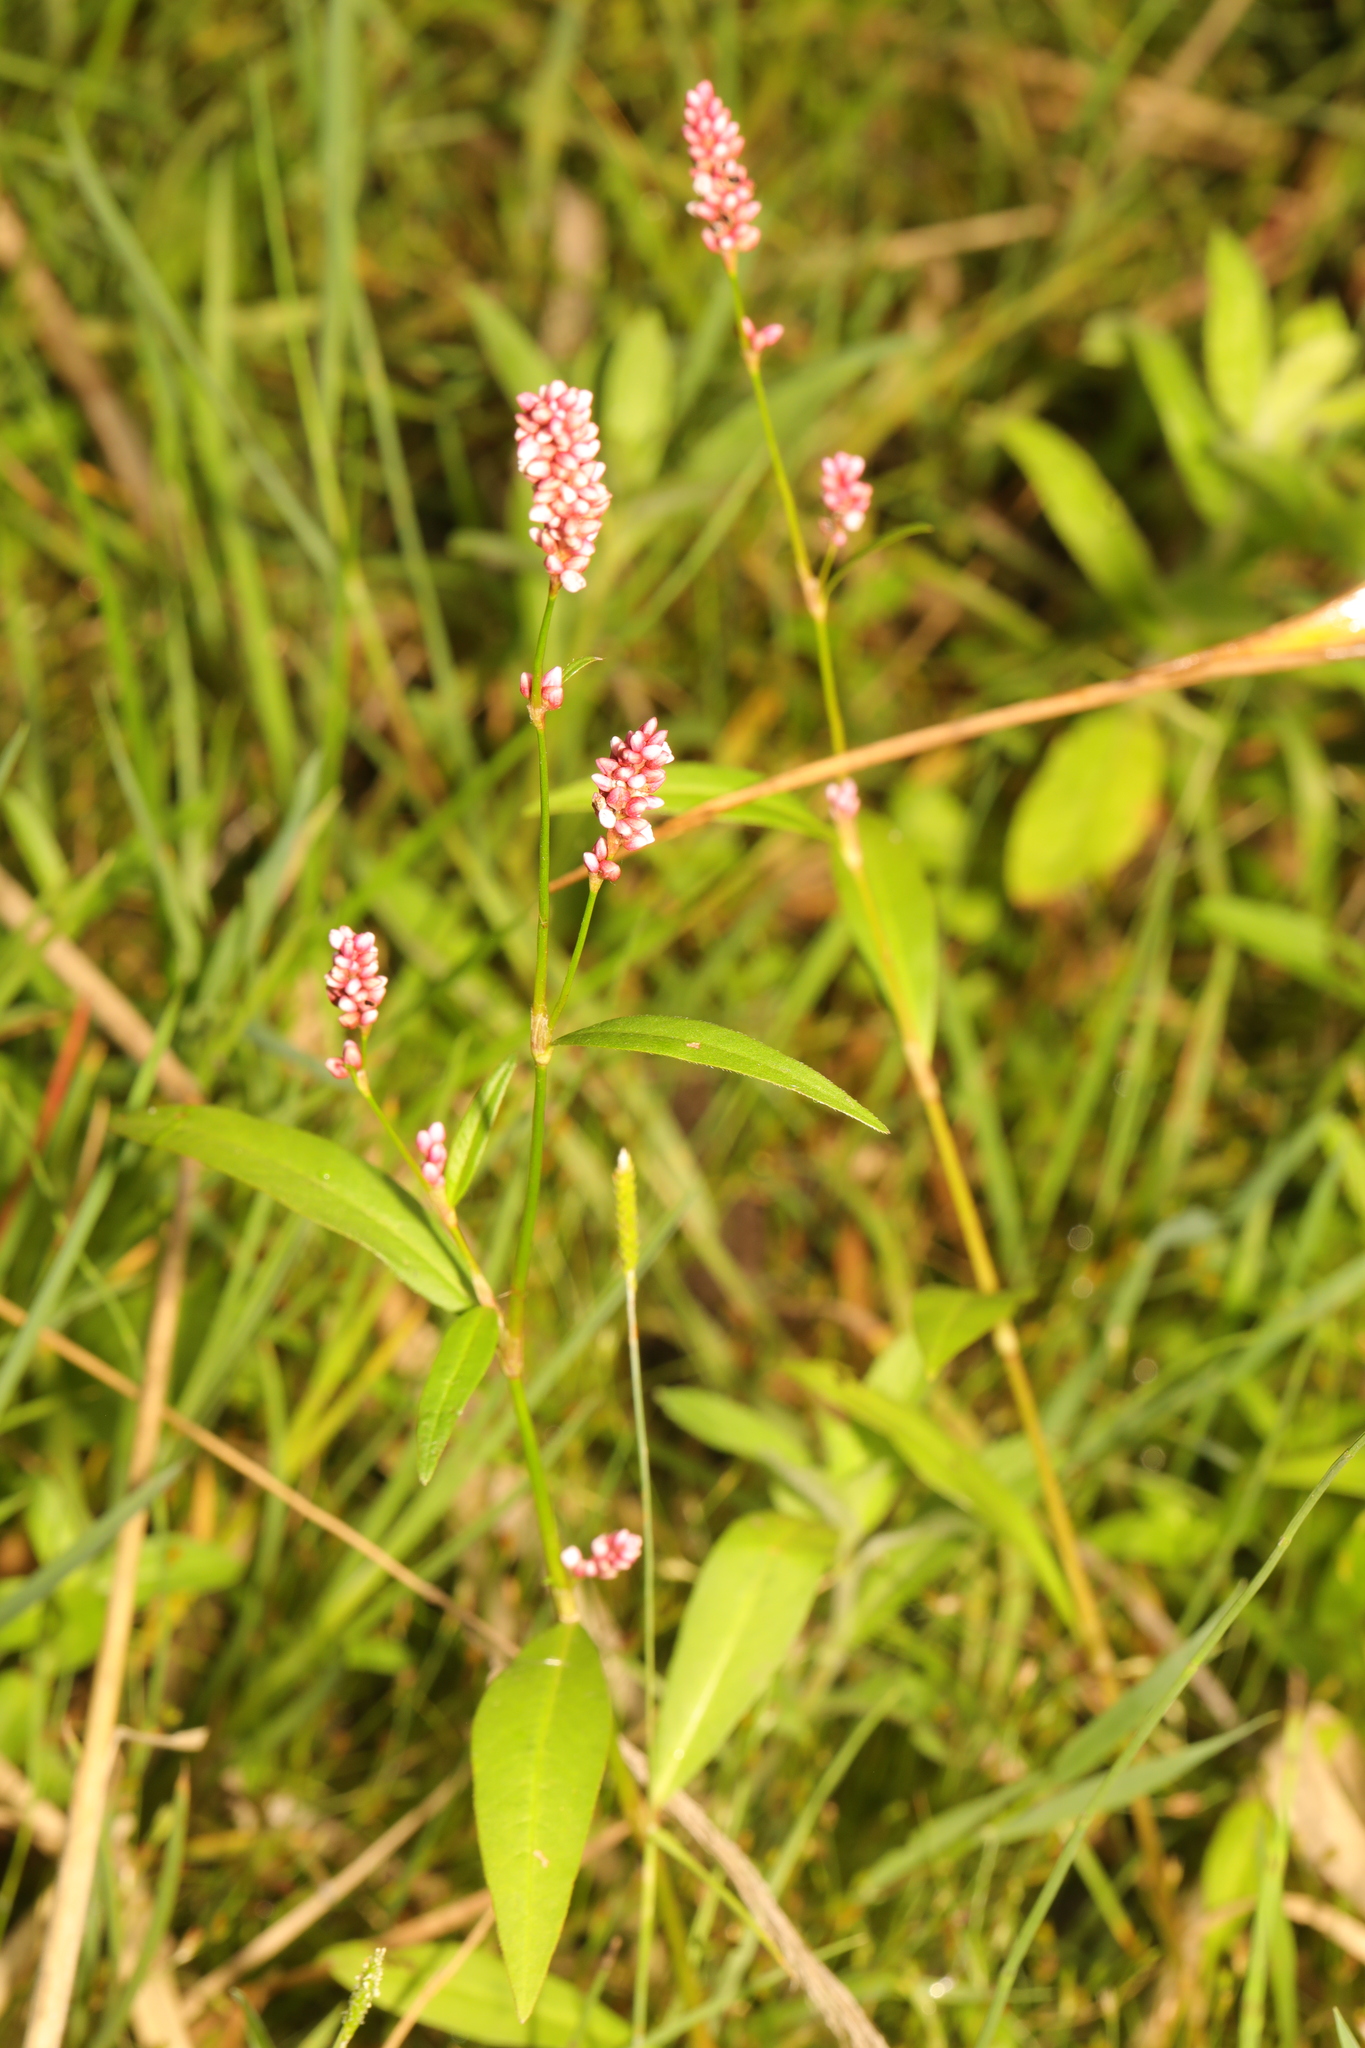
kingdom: Plantae
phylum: Tracheophyta
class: Magnoliopsida
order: Caryophyllales
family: Polygonaceae
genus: Persicaria
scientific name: Persicaria maculosa
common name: Redshank
